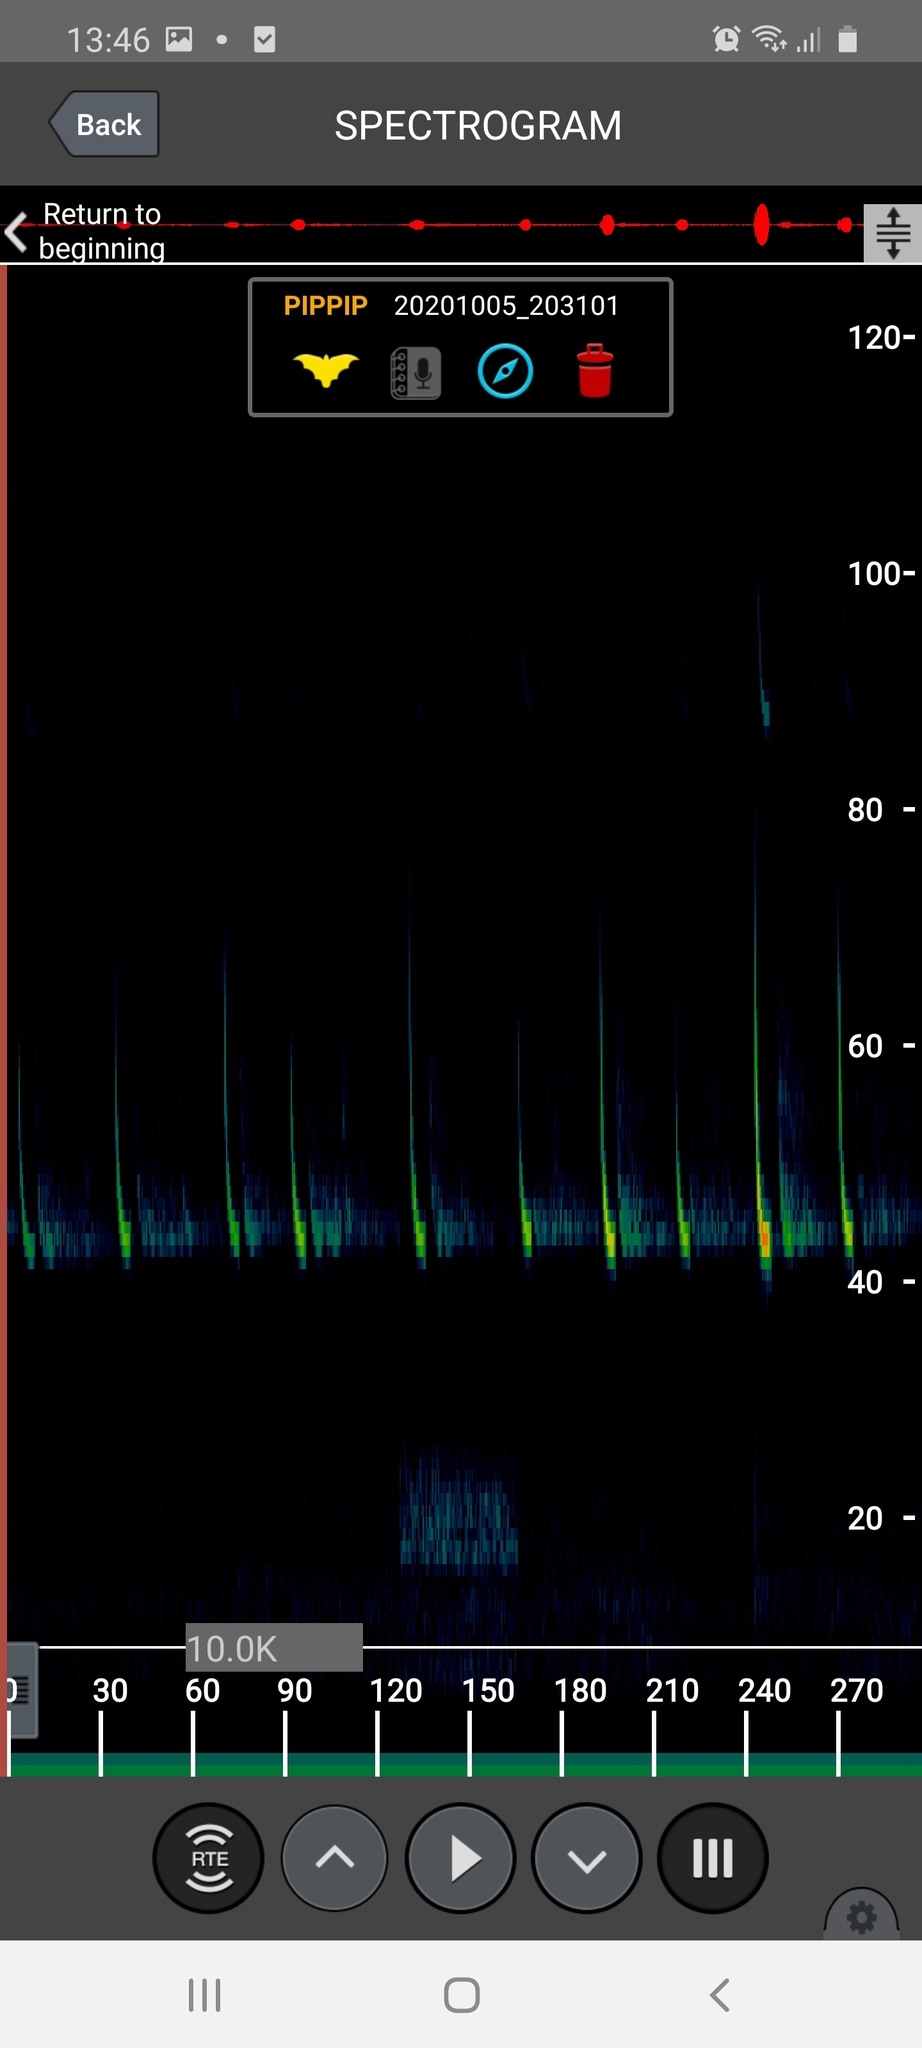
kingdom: Animalia
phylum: Chordata
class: Mammalia
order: Chiroptera
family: Vespertilionidae
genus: Pipistrellus
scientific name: Pipistrellus pipistrellus
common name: Common pipistrelle
